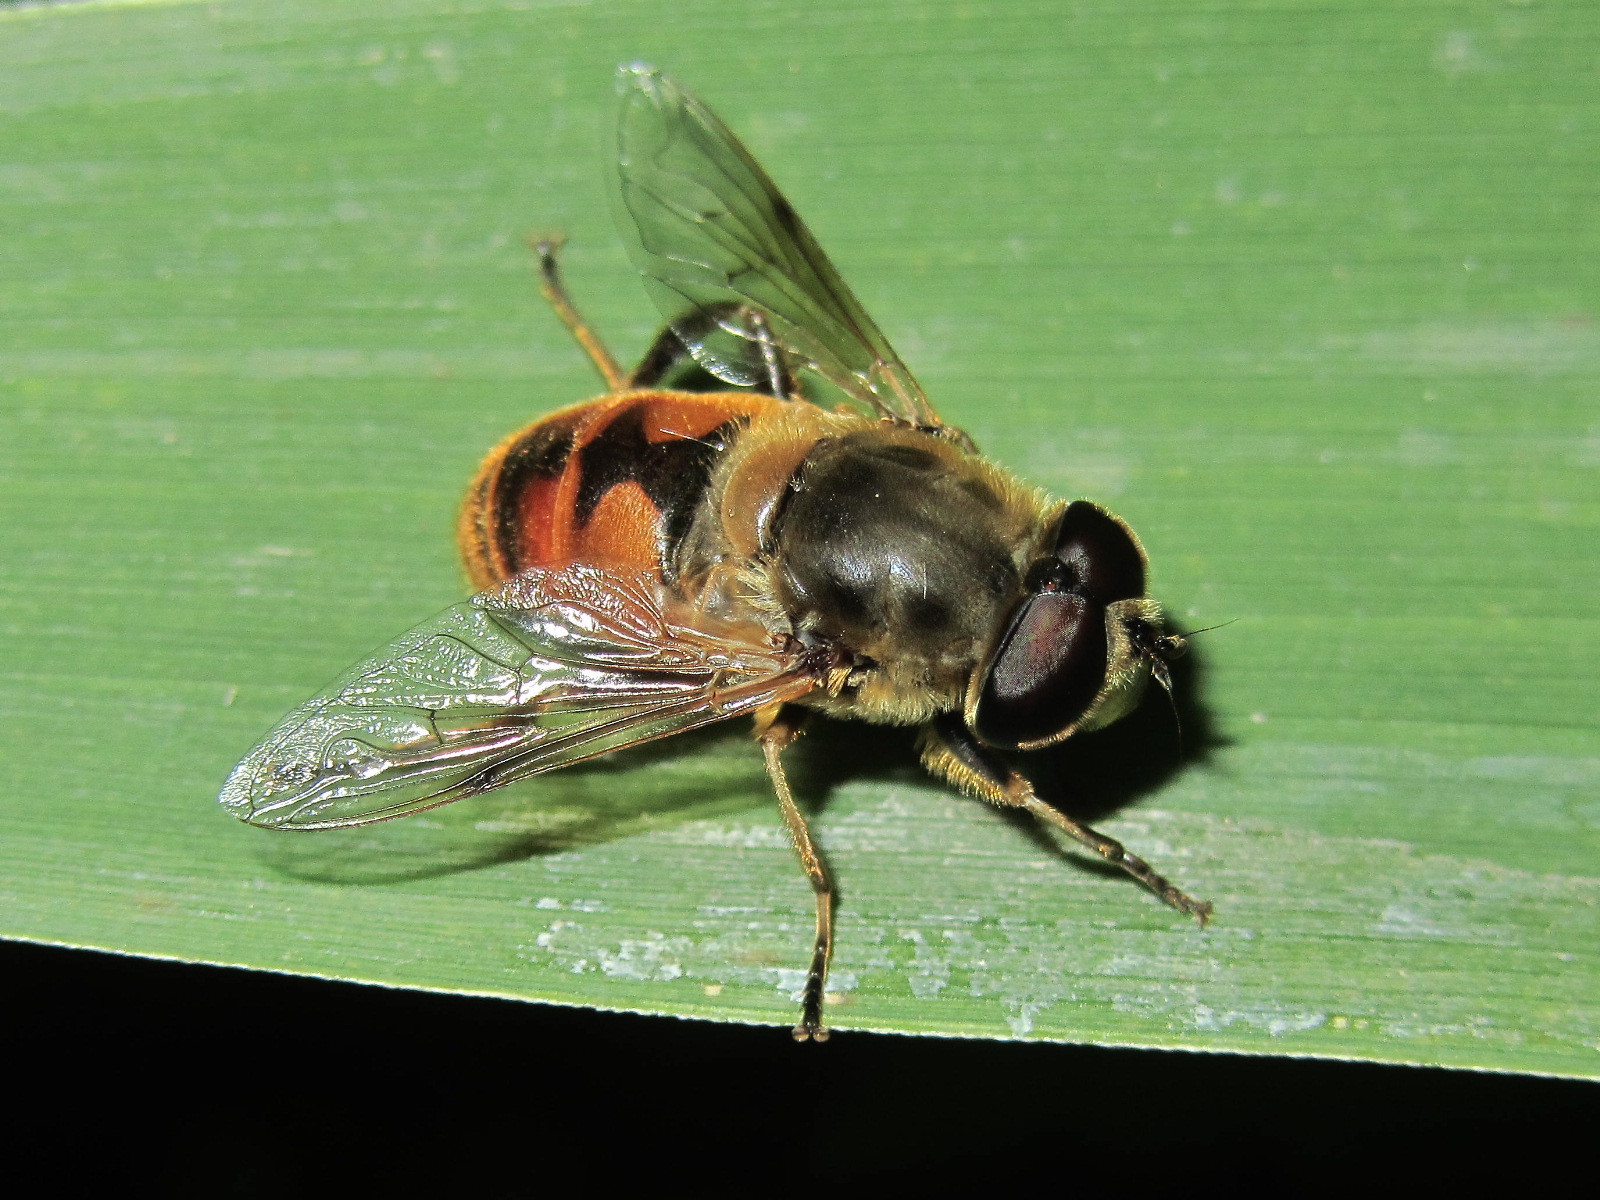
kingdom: Animalia
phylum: Arthropoda
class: Insecta
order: Diptera
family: Syrphidae
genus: Eristalis
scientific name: Eristalis tenax
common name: Drone fly
